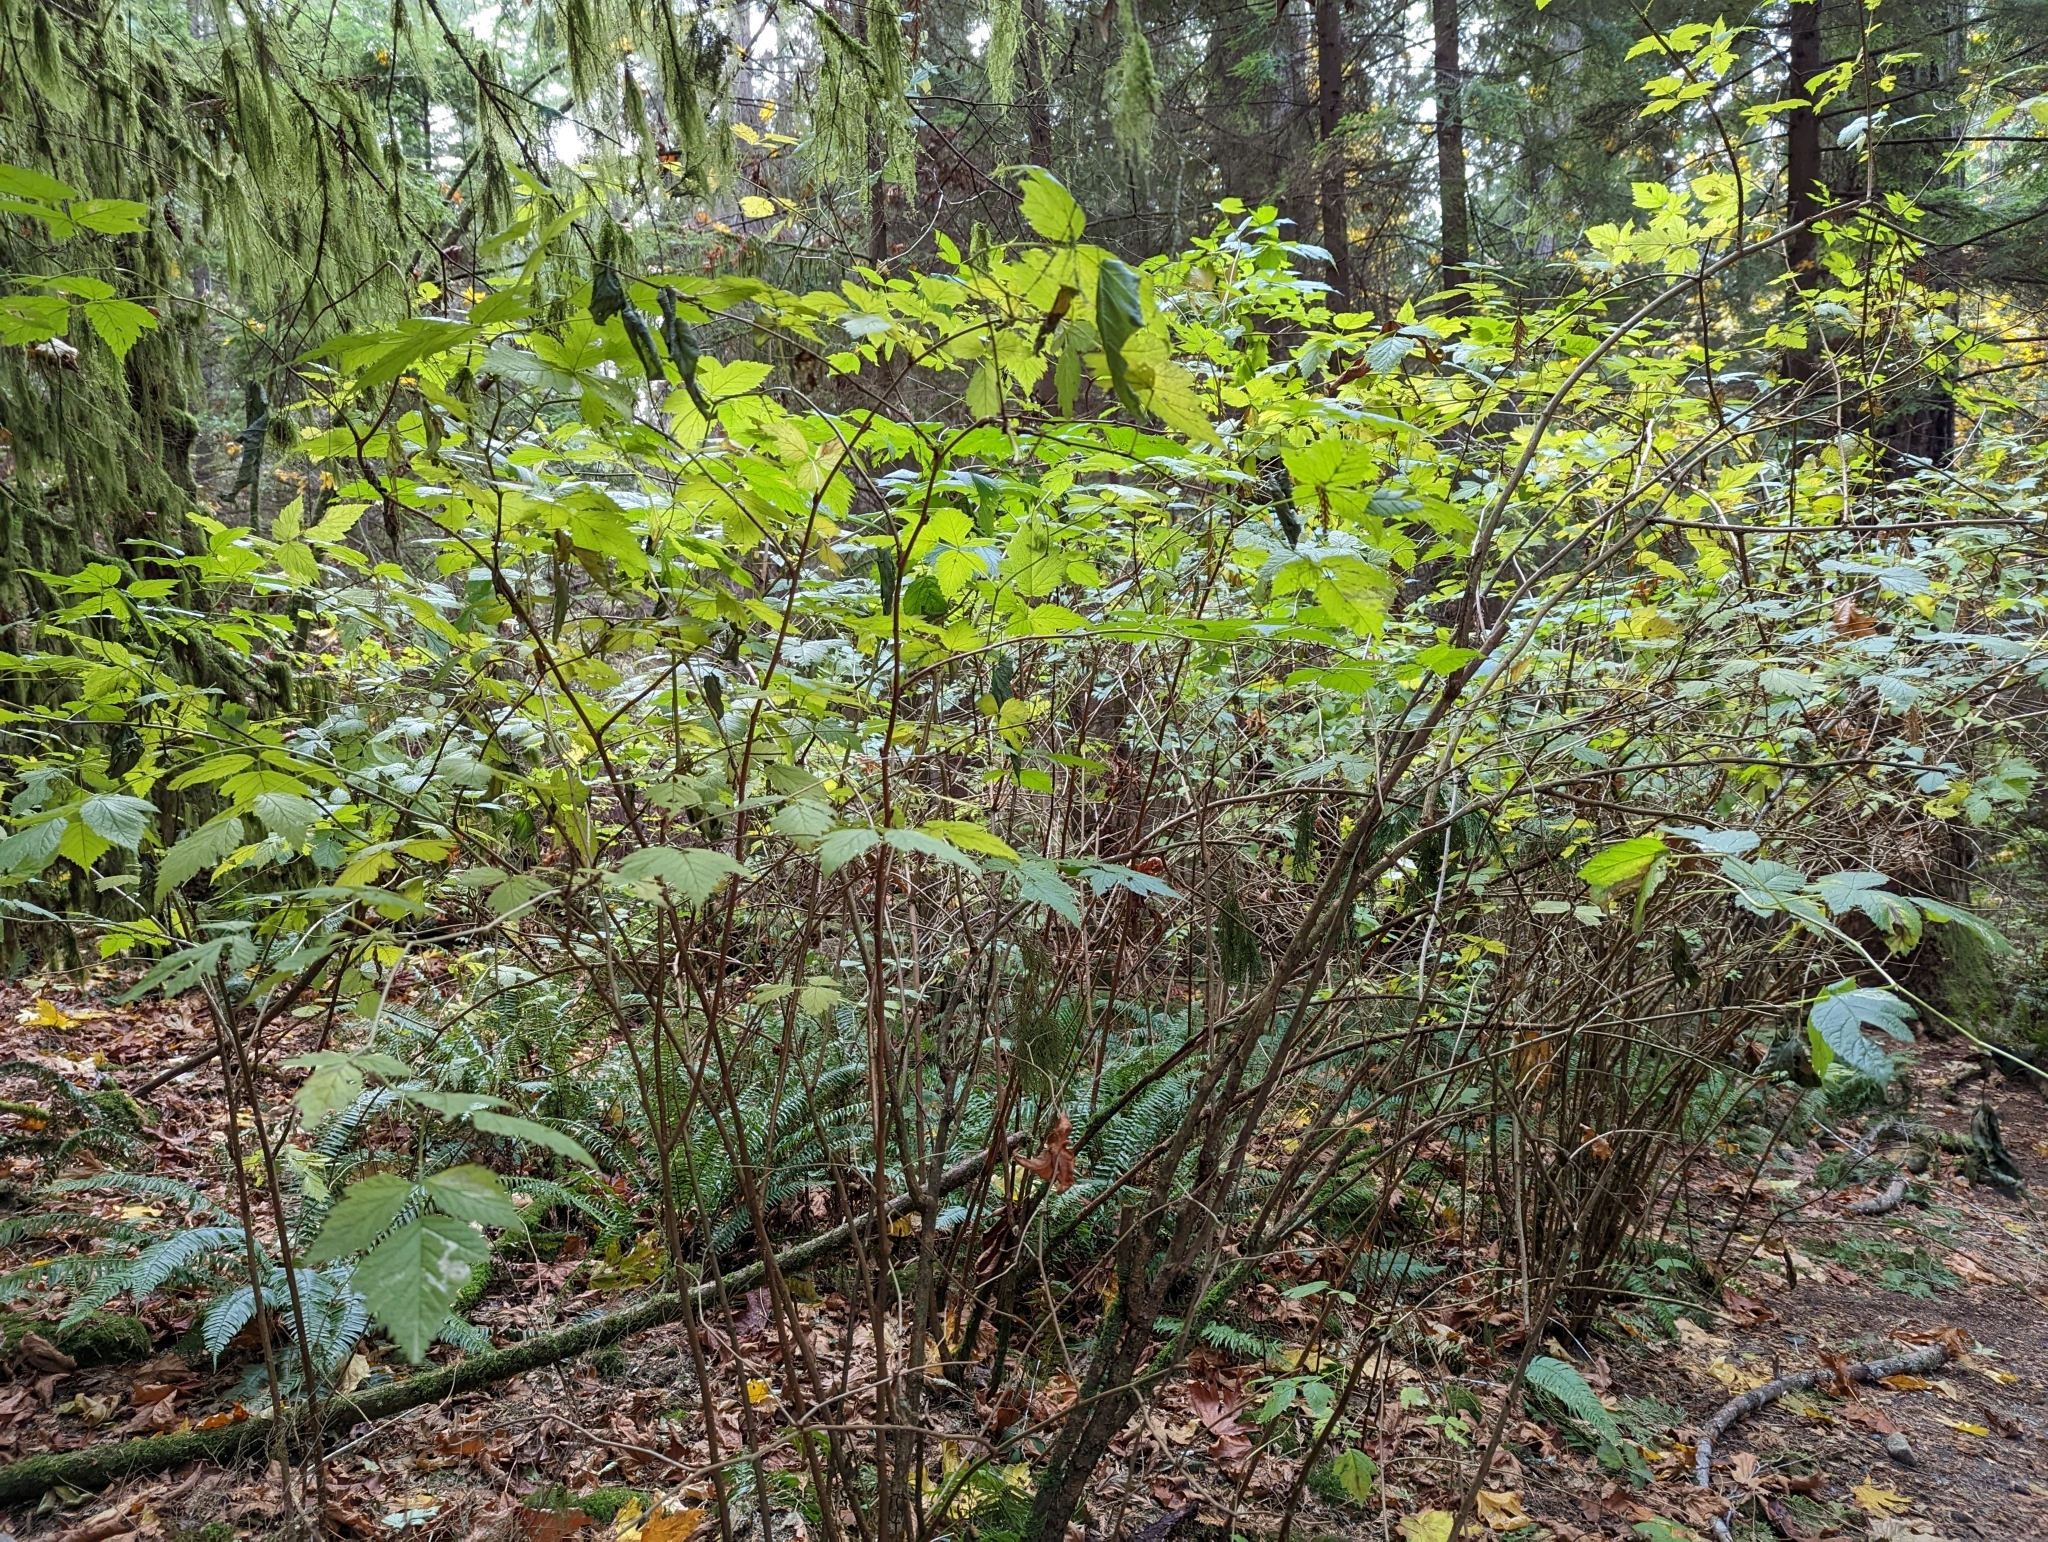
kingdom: Plantae
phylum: Tracheophyta
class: Magnoliopsida
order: Rosales
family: Rosaceae
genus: Rubus
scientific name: Rubus spectabilis
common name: Salmonberry
